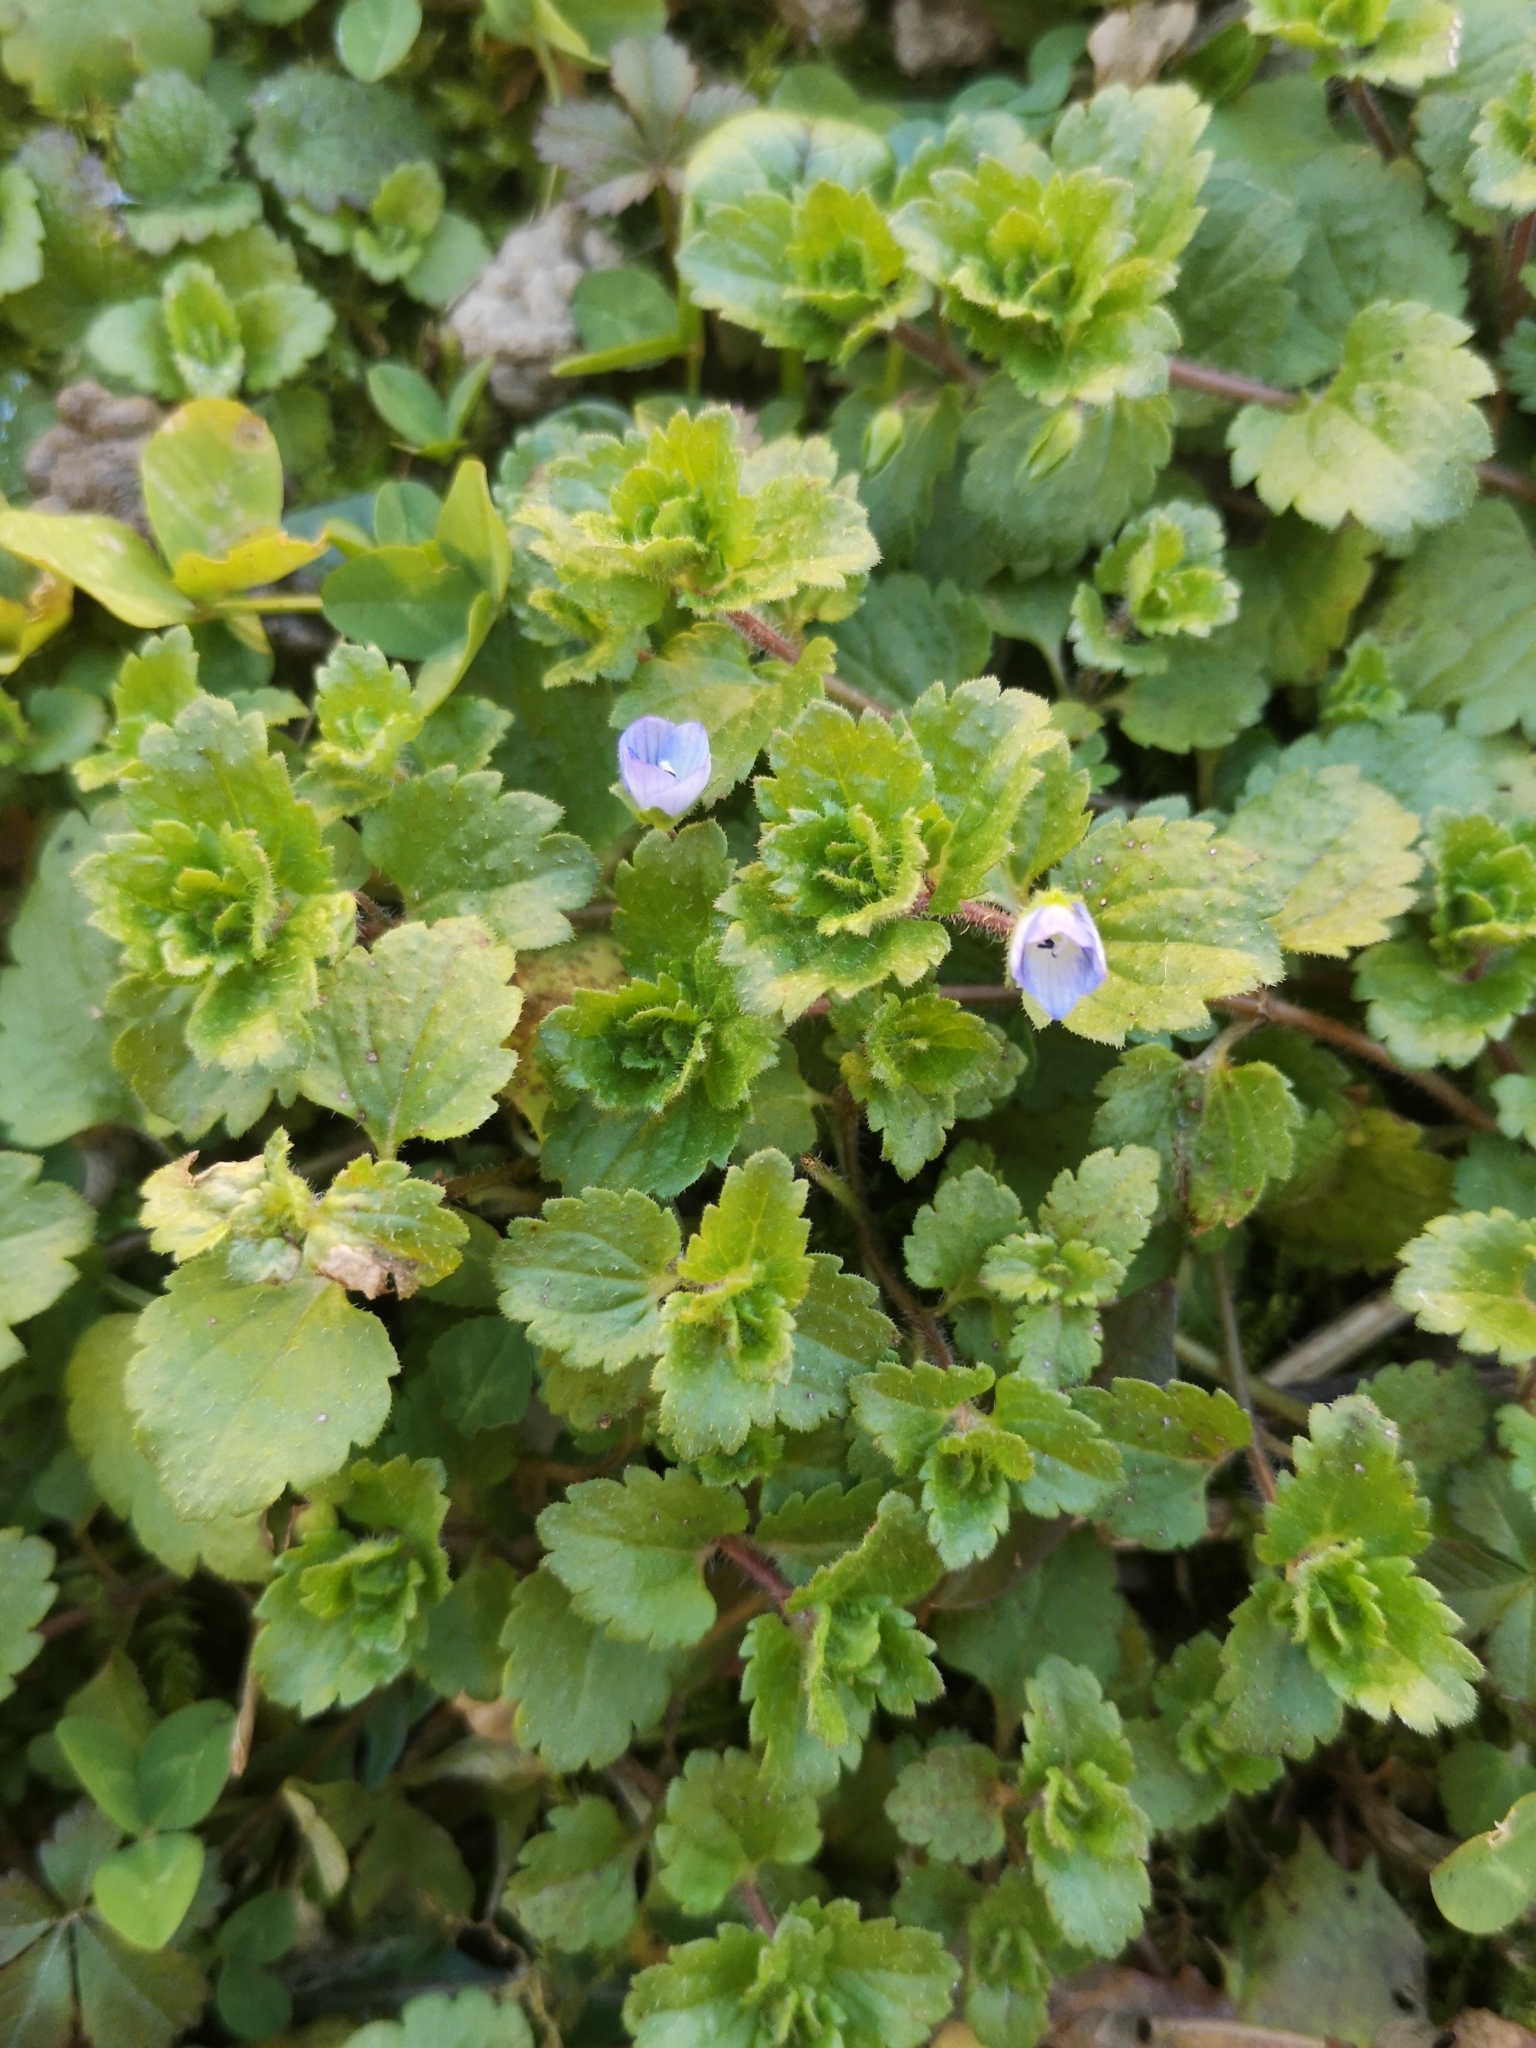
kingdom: Plantae
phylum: Tracheophyta
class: Magnoliopsida
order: Lamiales
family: Plantaginaceae
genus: Veronica
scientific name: Veronica persica
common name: Common field-speedwell
